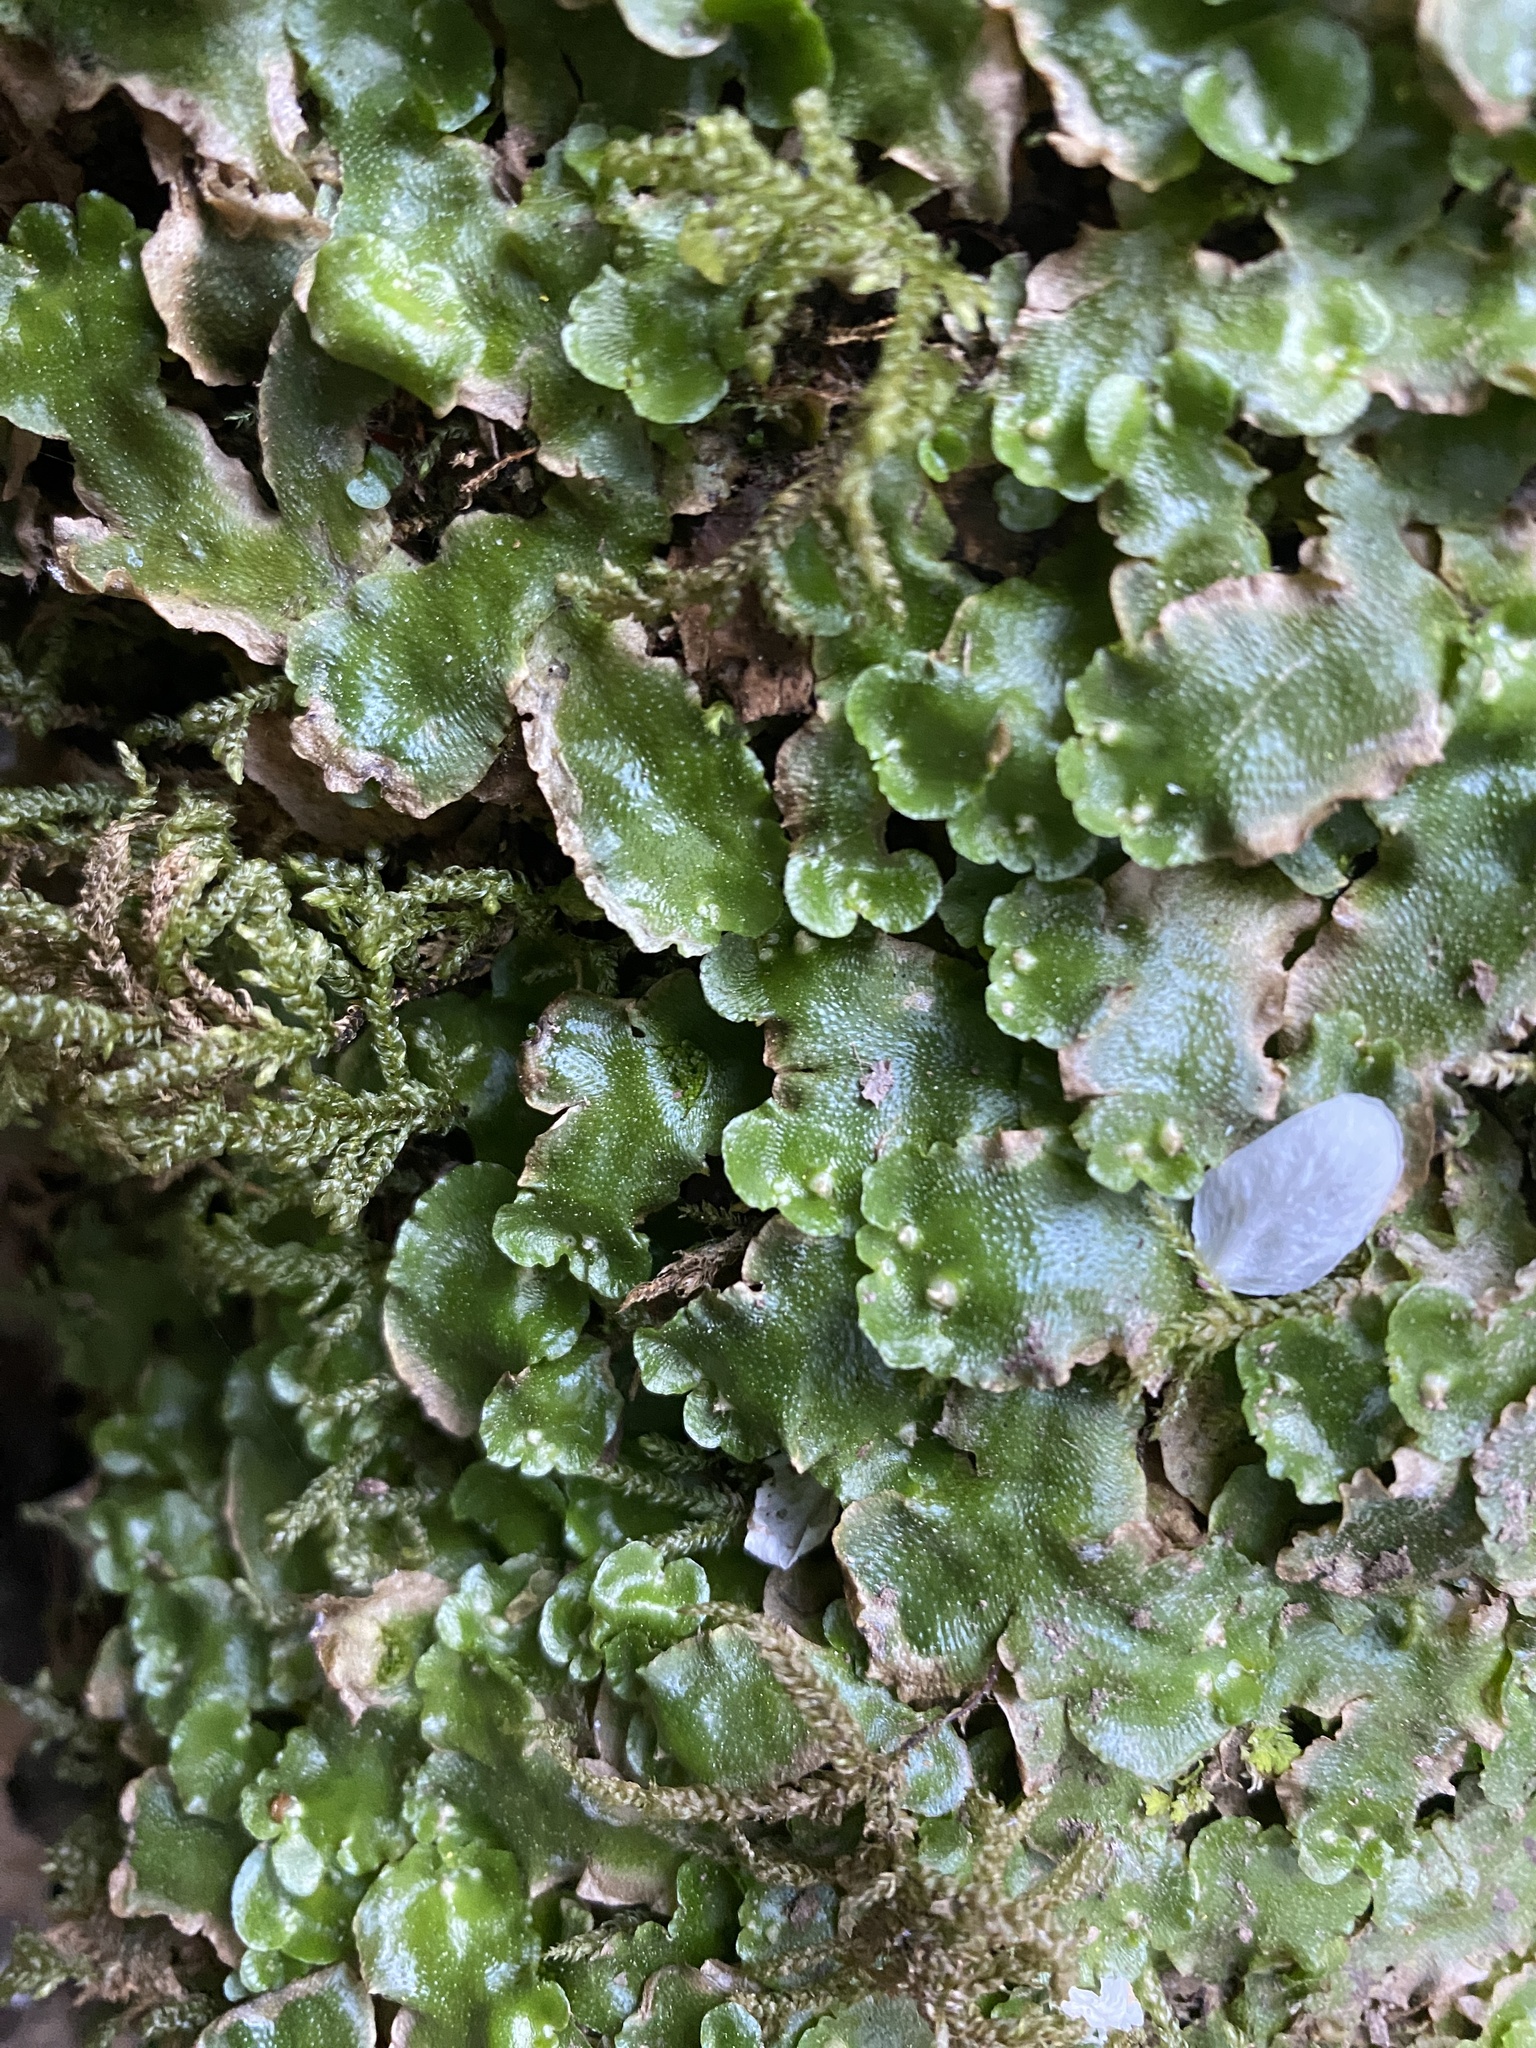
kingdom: Plantae
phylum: Marchantiophyta
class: Marchantiopsida
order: Lunulariales
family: Lunulariaceae
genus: Lunularia
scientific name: Lunularia cruciata
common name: Crescent-cup liverwort
